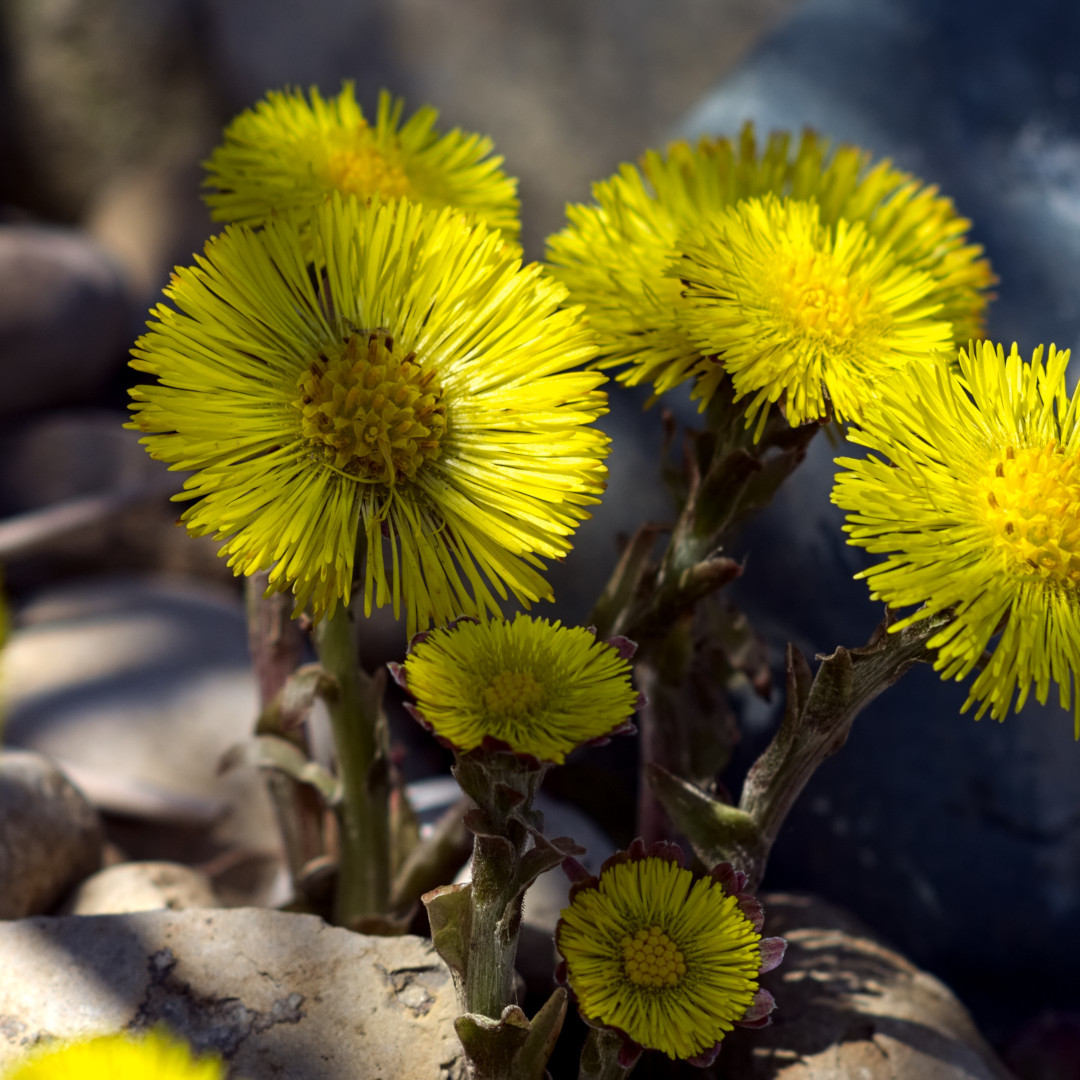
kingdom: Plantae
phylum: Tracheophyta
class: Magnoliopsida
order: Asterales
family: Asteraceae
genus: Tussilago
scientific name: Tussilago farfara
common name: Coltsfoot
